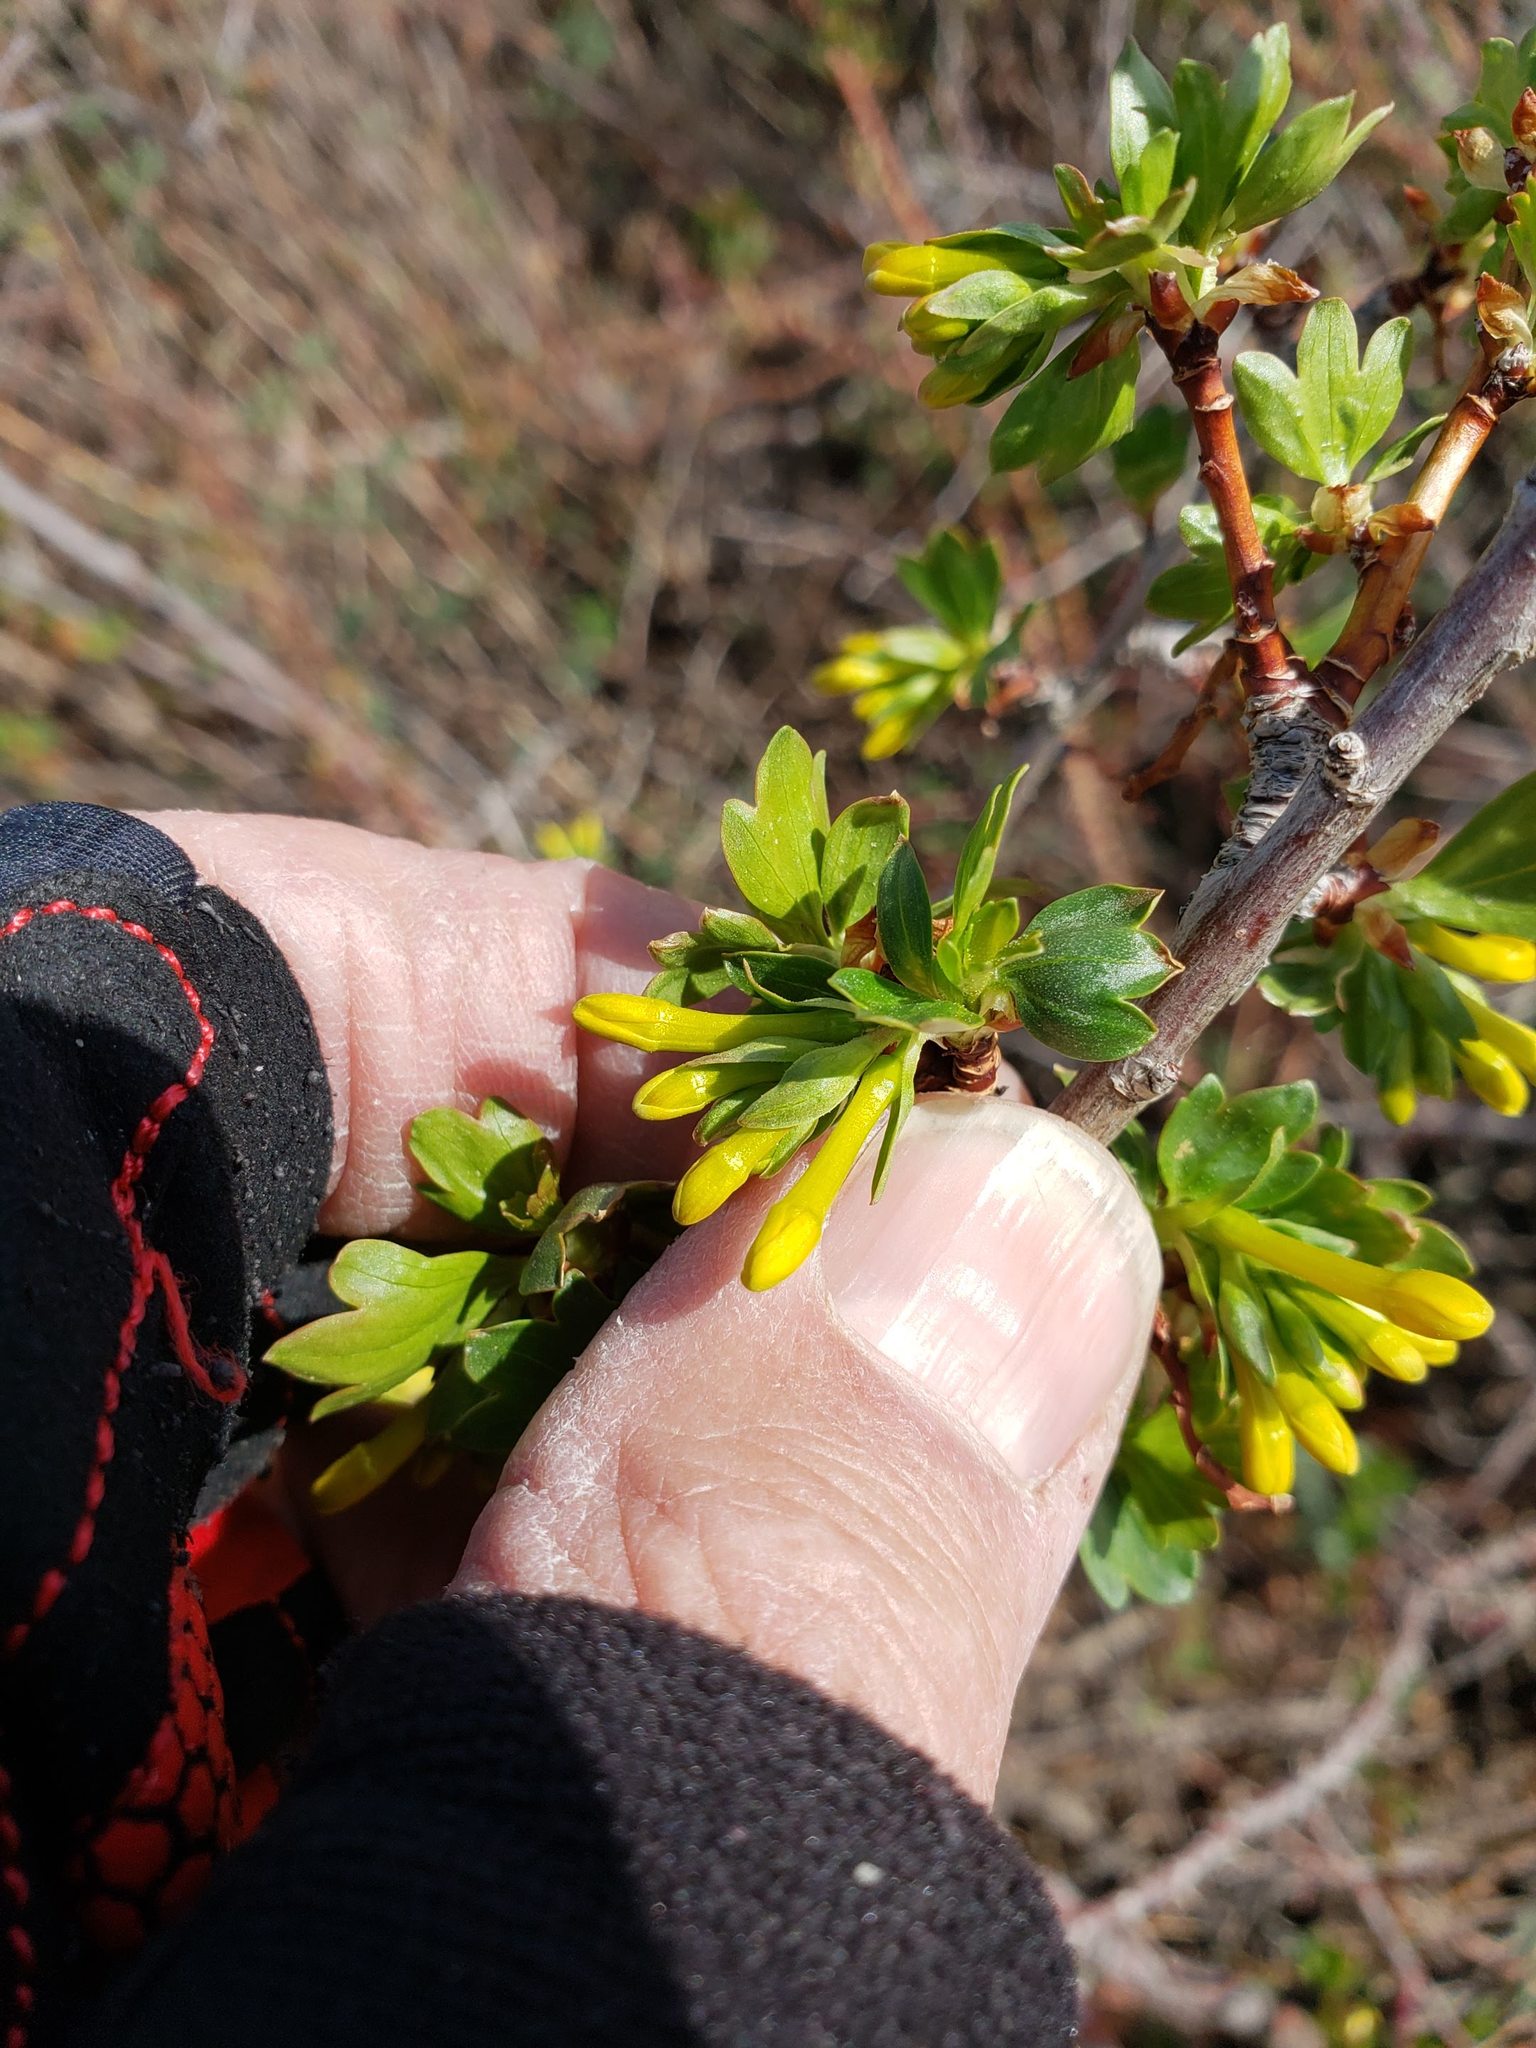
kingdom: Plantae
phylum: Tracheophyta
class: Magnoliopsida
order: Saxifragales
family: Grossulariaceae
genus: Ribes
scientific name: Ribes aureum
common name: Golden currant
